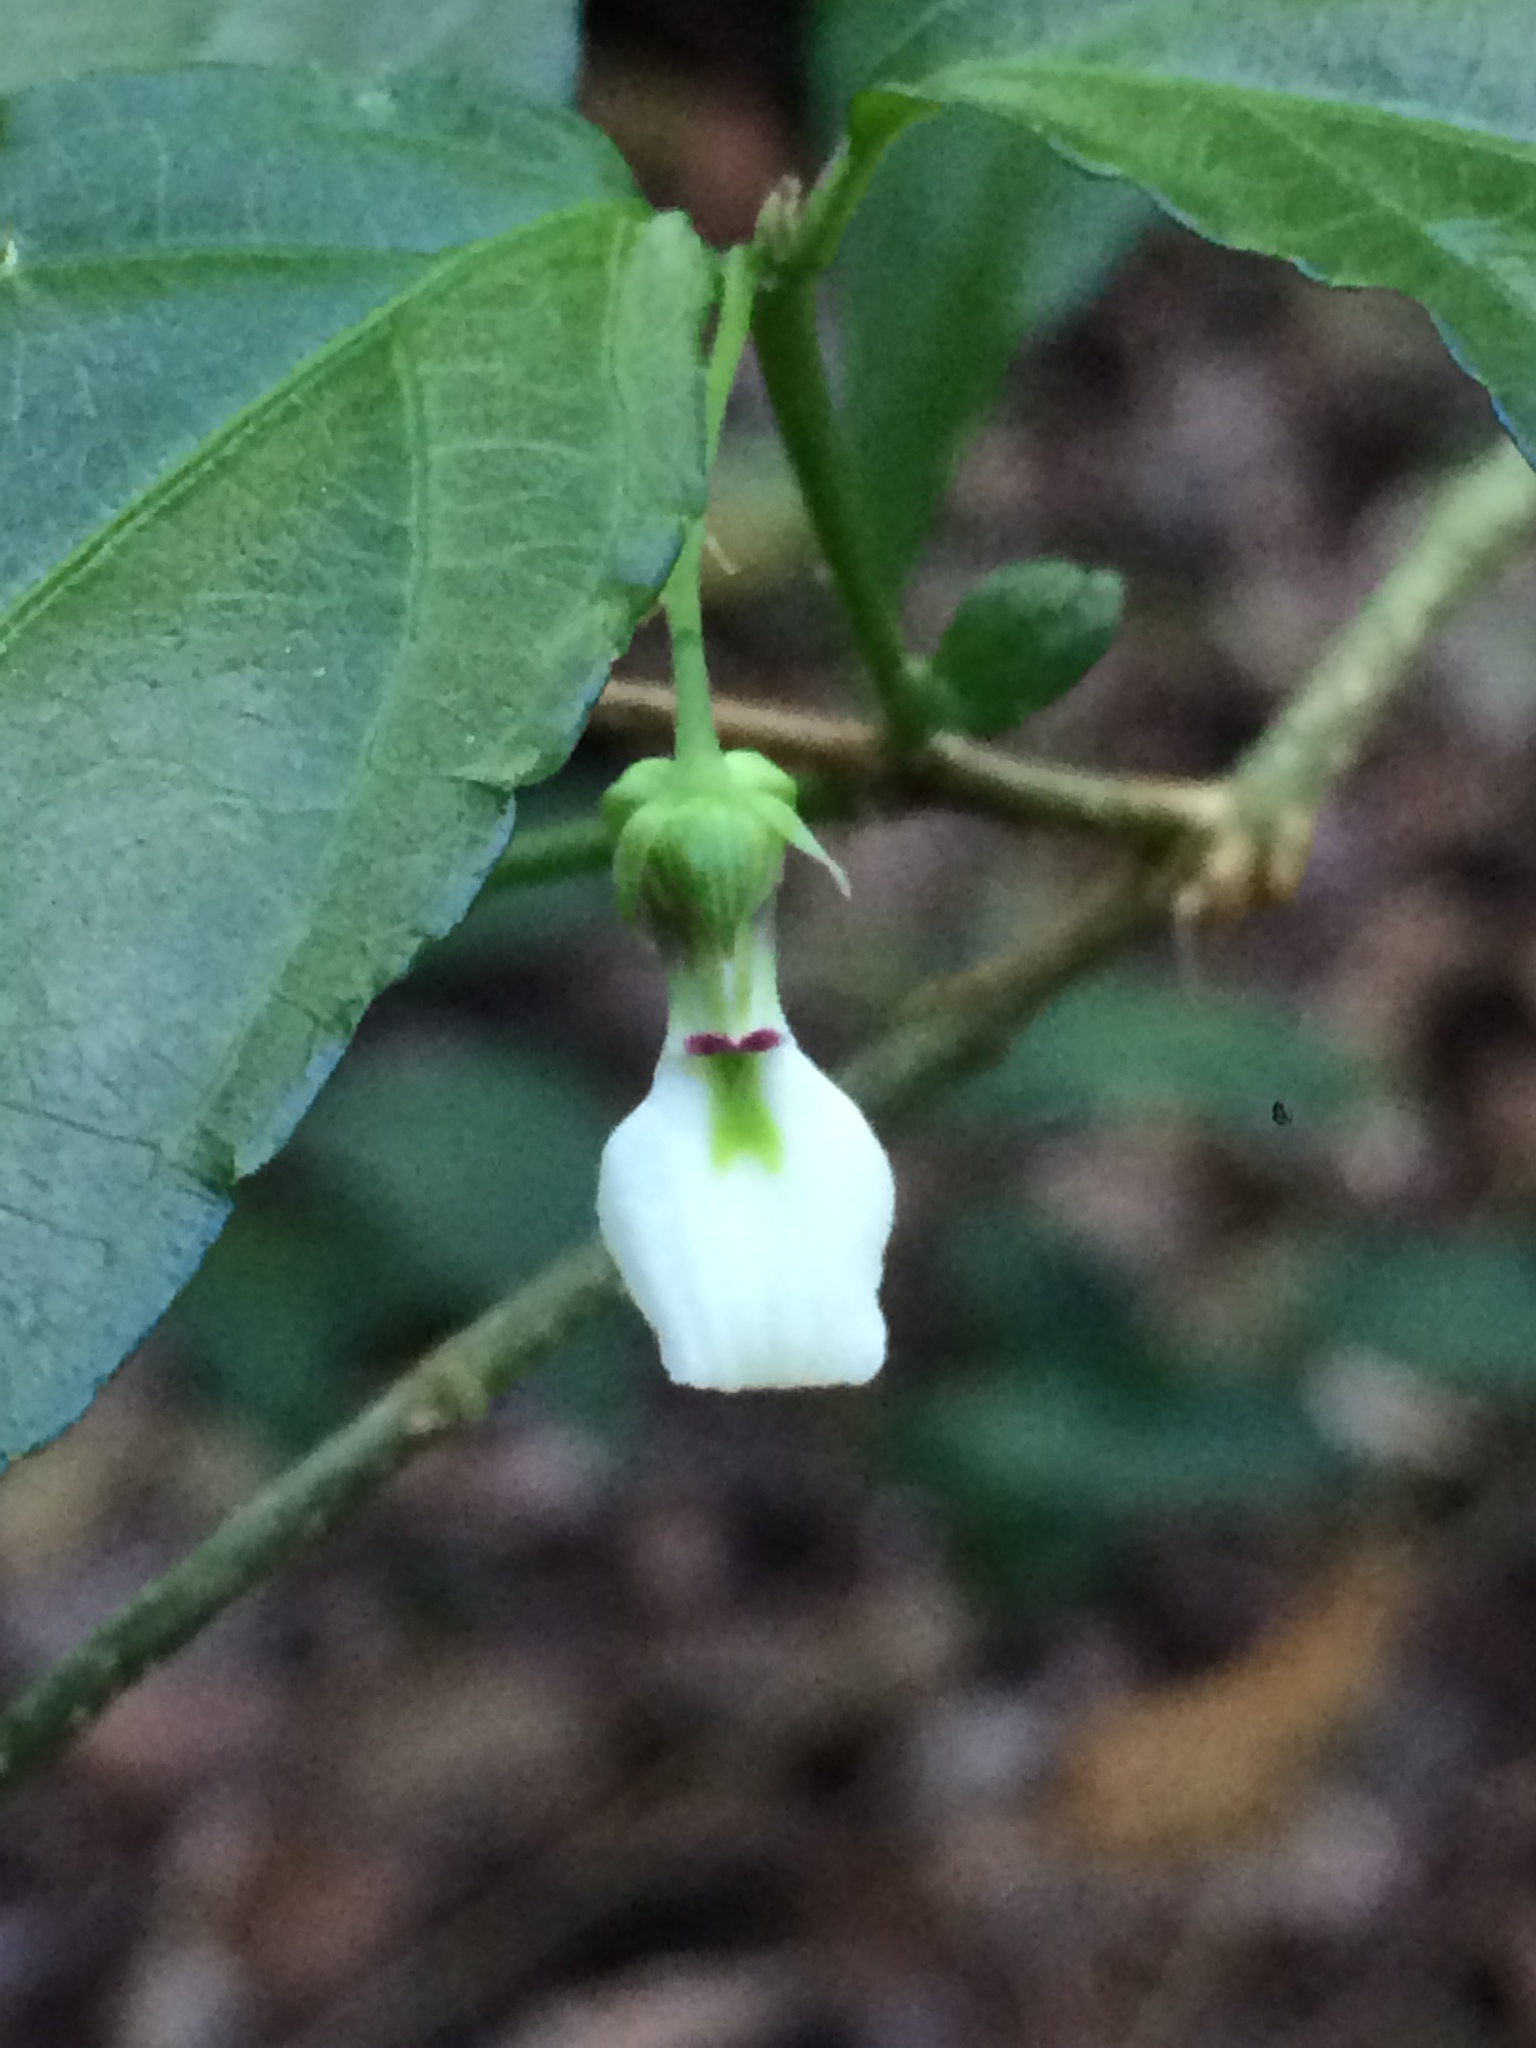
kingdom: Plantae
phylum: Tracheophyta
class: Magnoliopsida
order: Malpighiales
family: Violaceae
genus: Pombalia
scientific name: Pombalia bigibbosa
